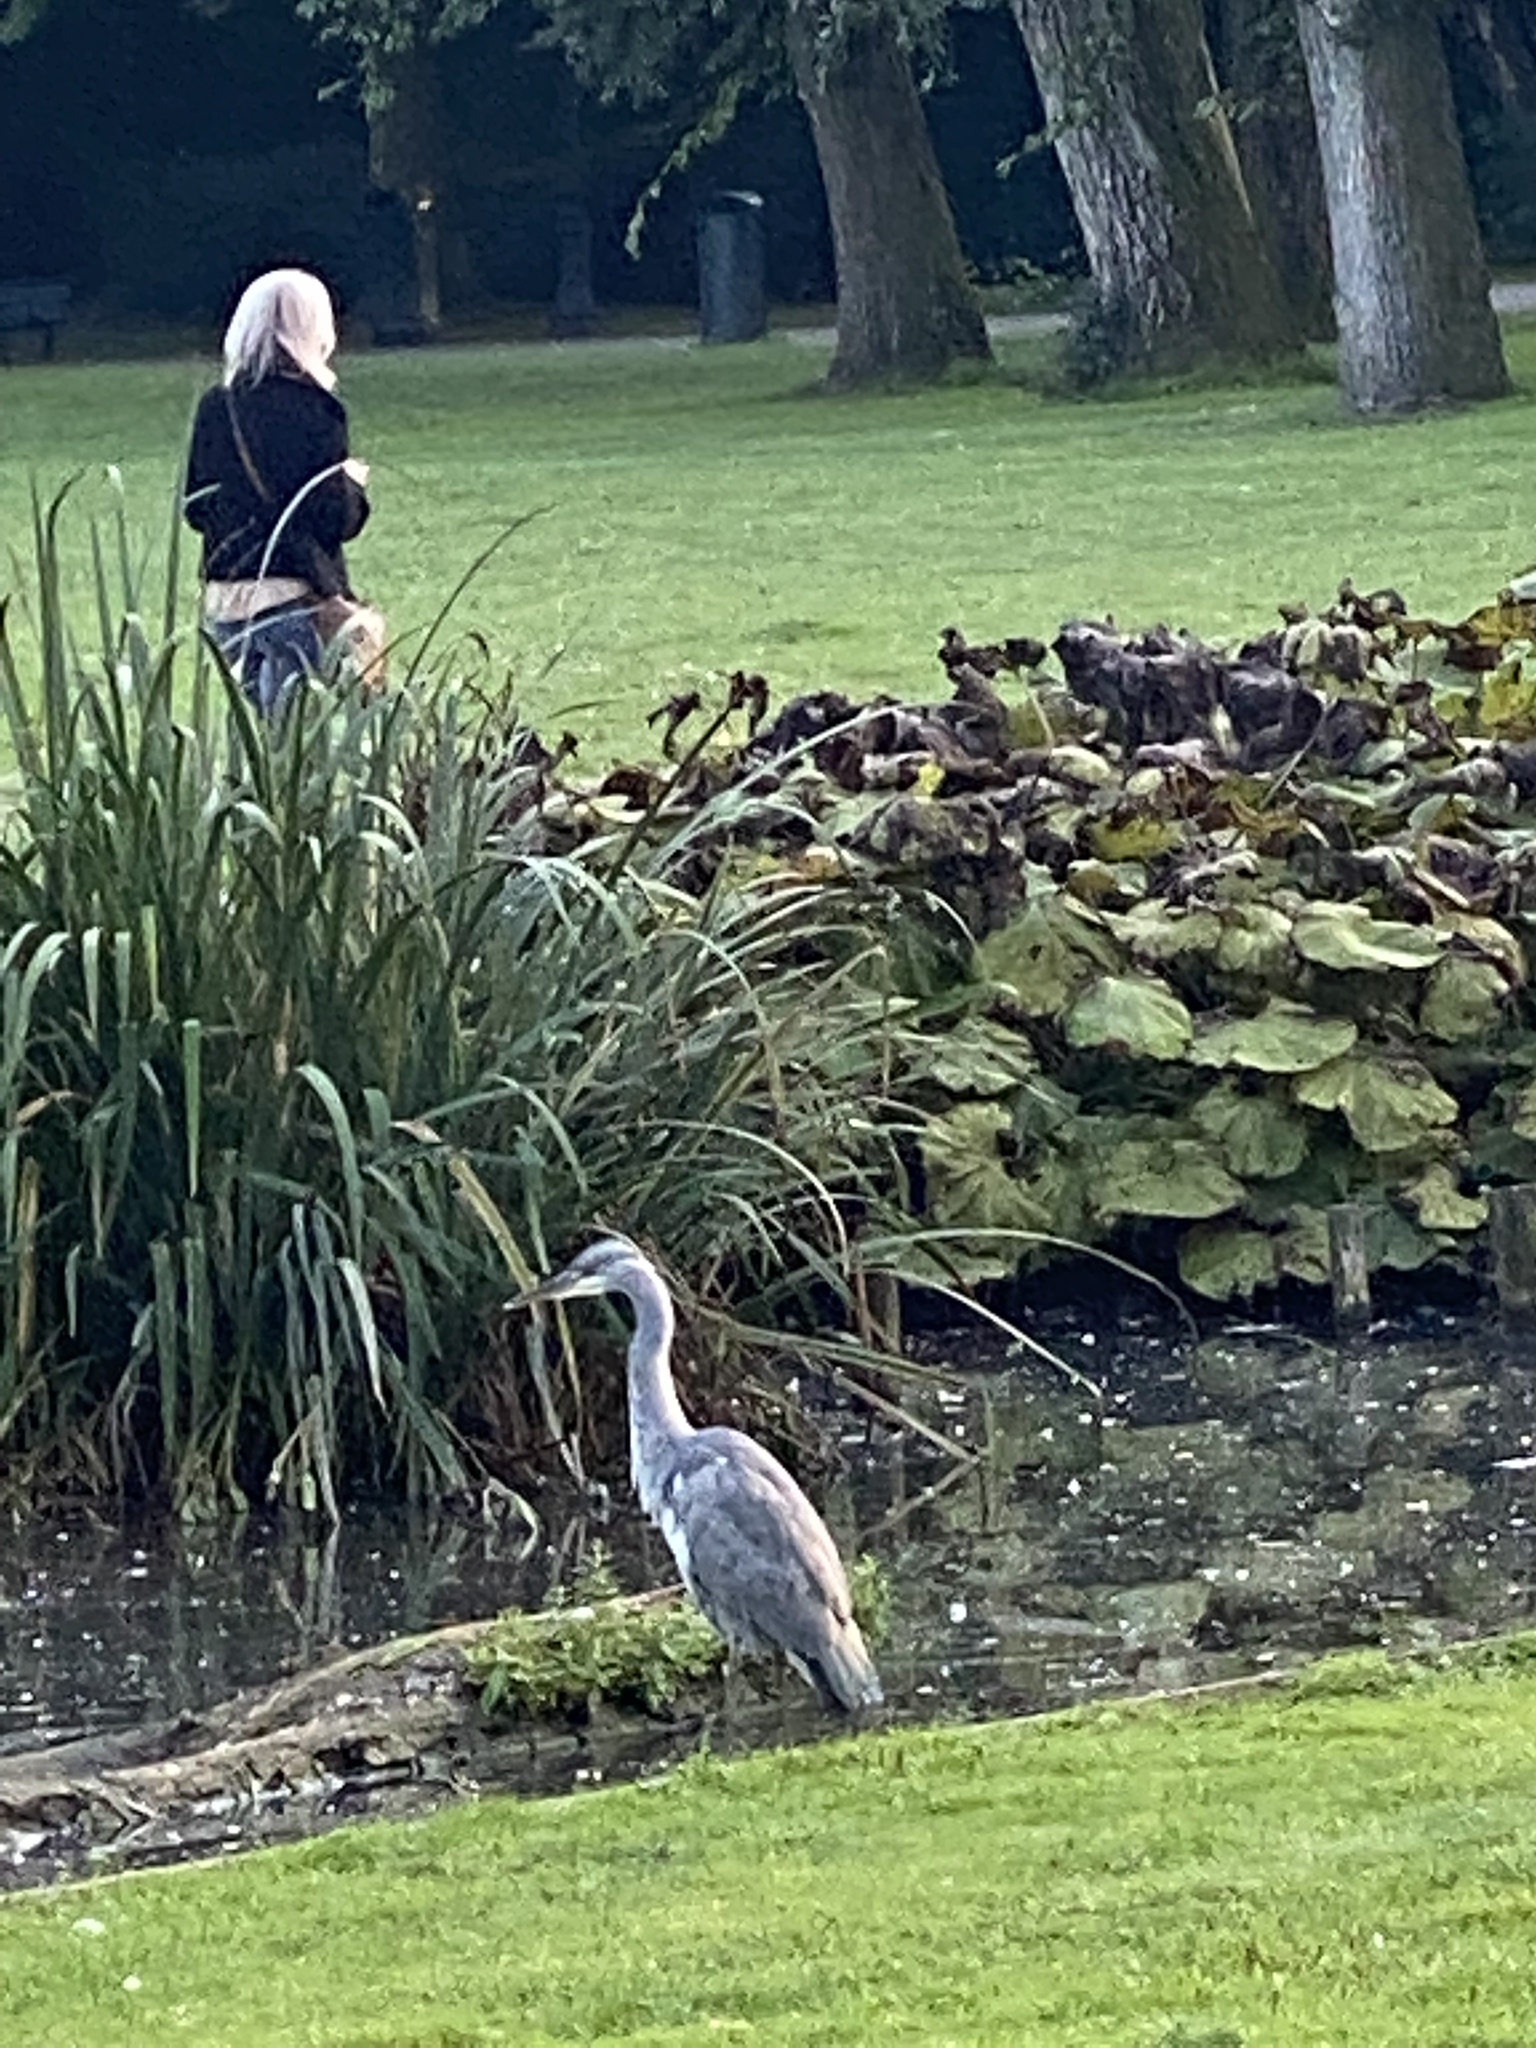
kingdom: Animalia
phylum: Chordata
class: Aves
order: Pelecaniformes
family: Ardeidae
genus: Ardea
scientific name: Ardea cinerea
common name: Grey heron
